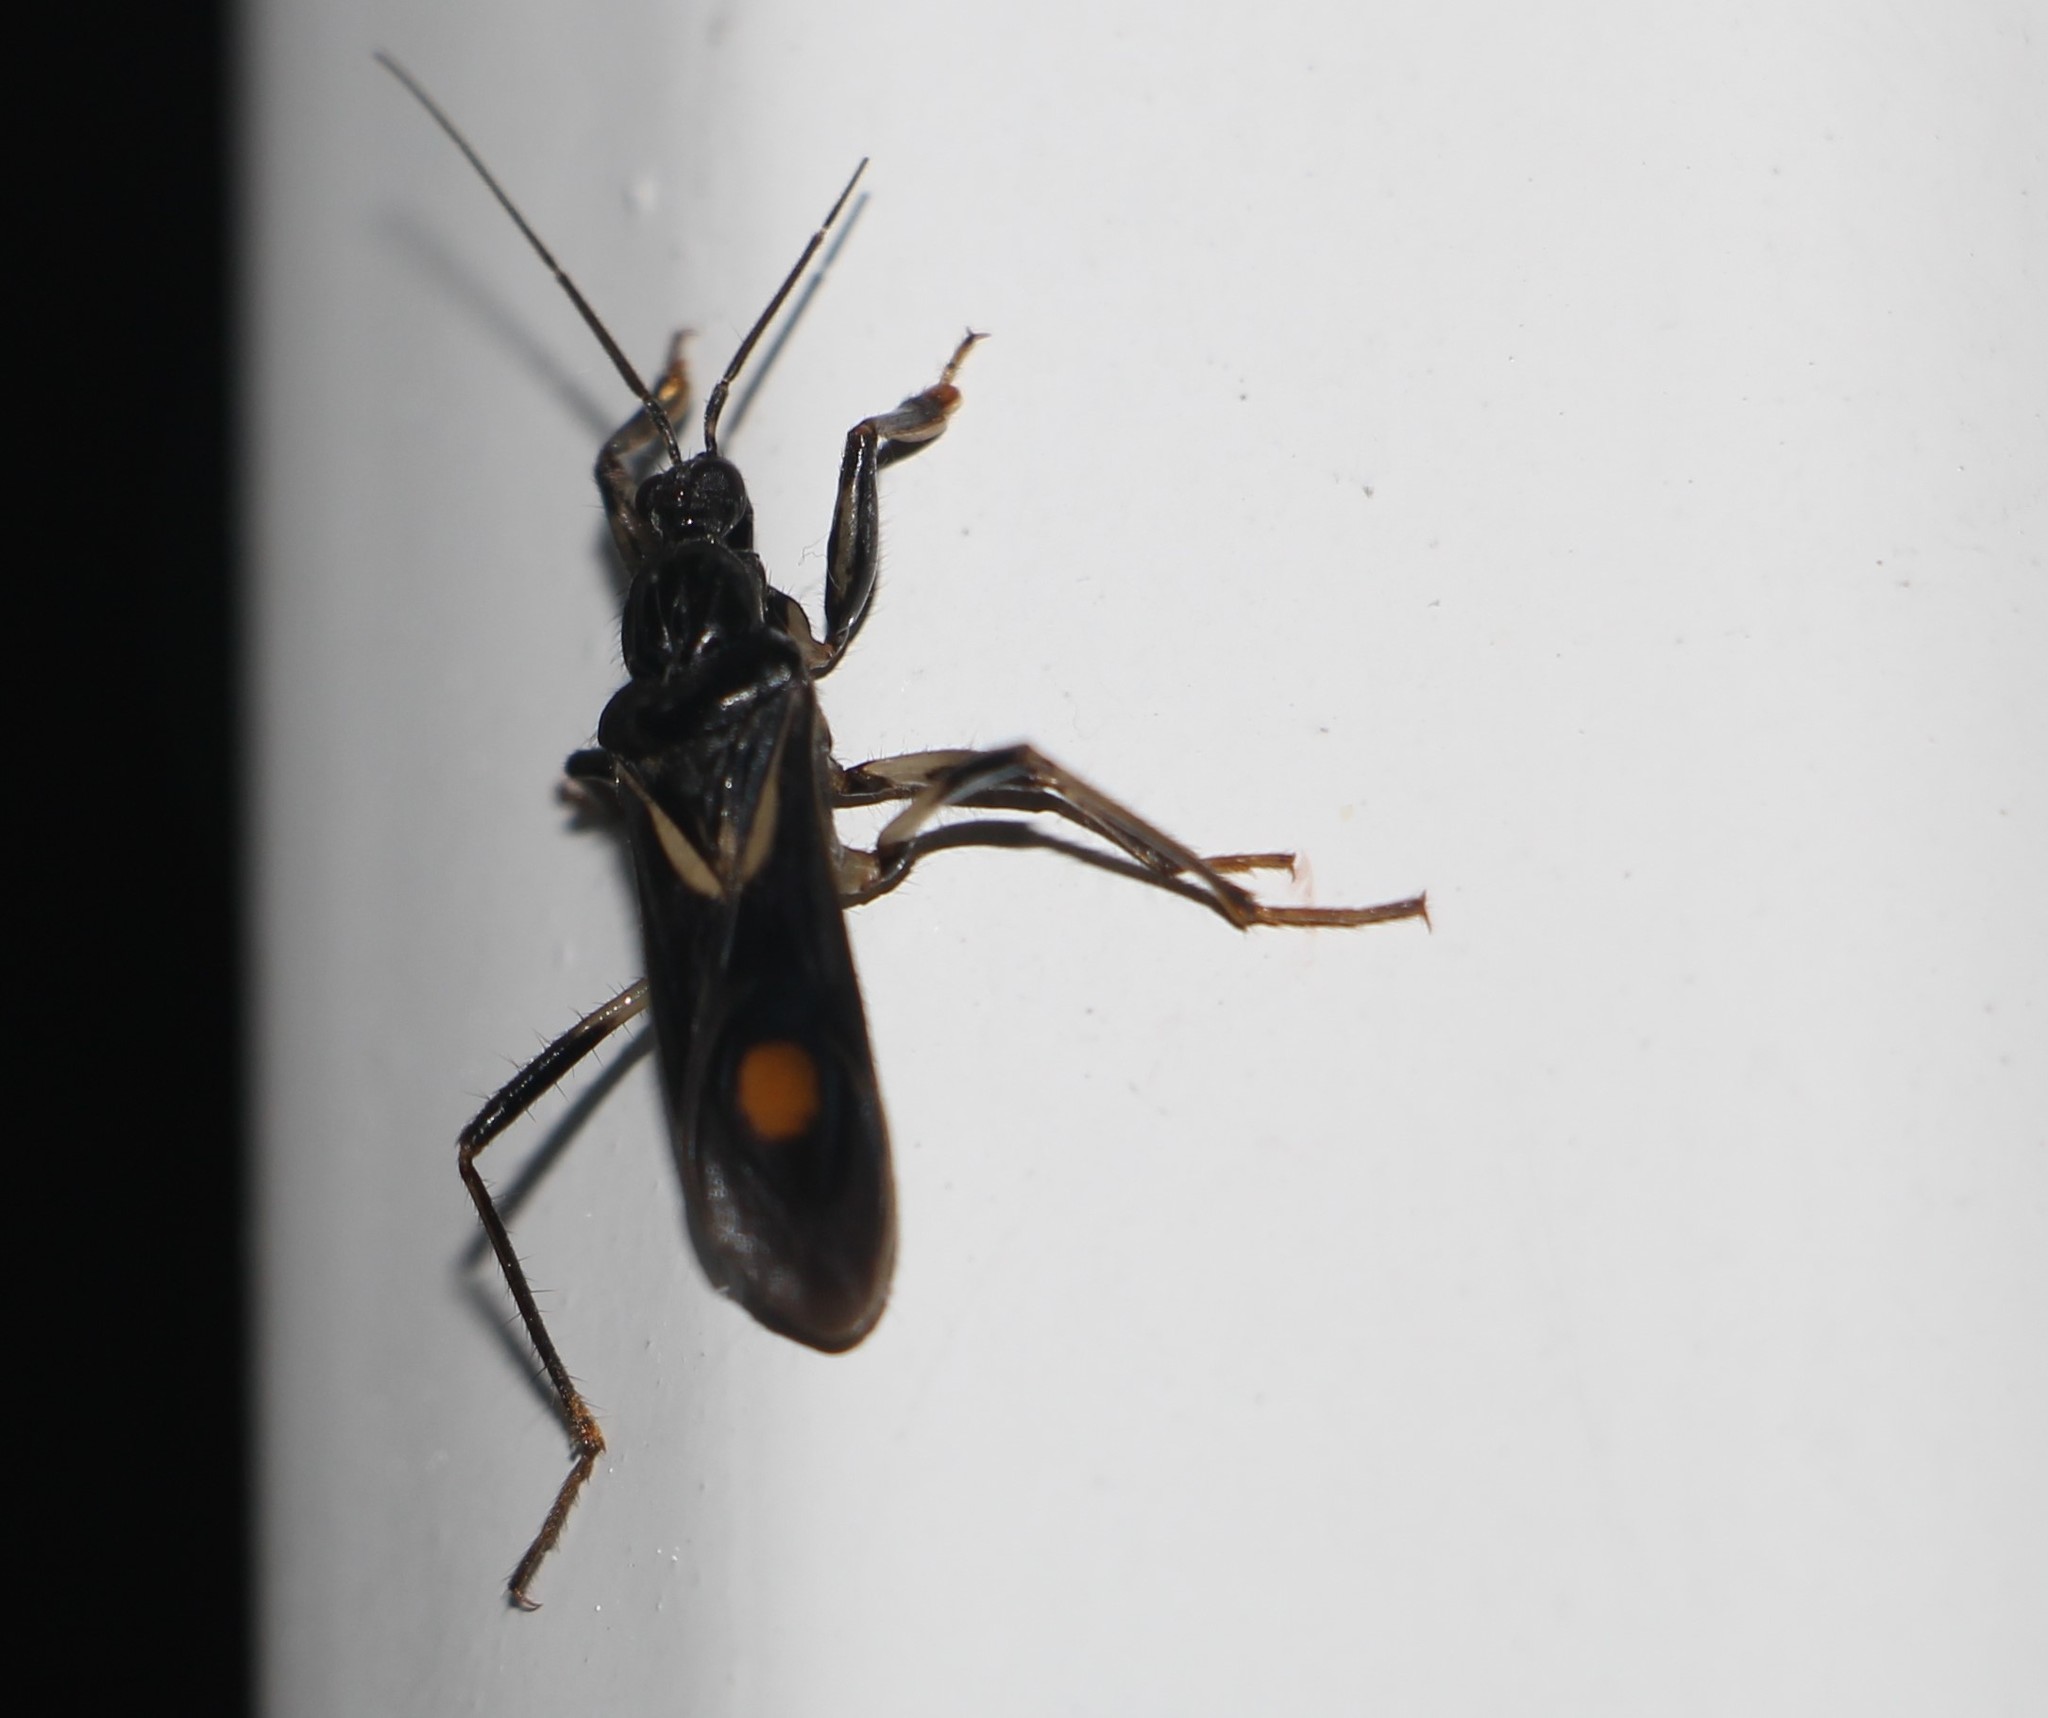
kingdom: Animalia
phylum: Arthropoda
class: Insecta
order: Hemiptera
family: Reduviidae
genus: Rasahus
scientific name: Rasahus hamatus
